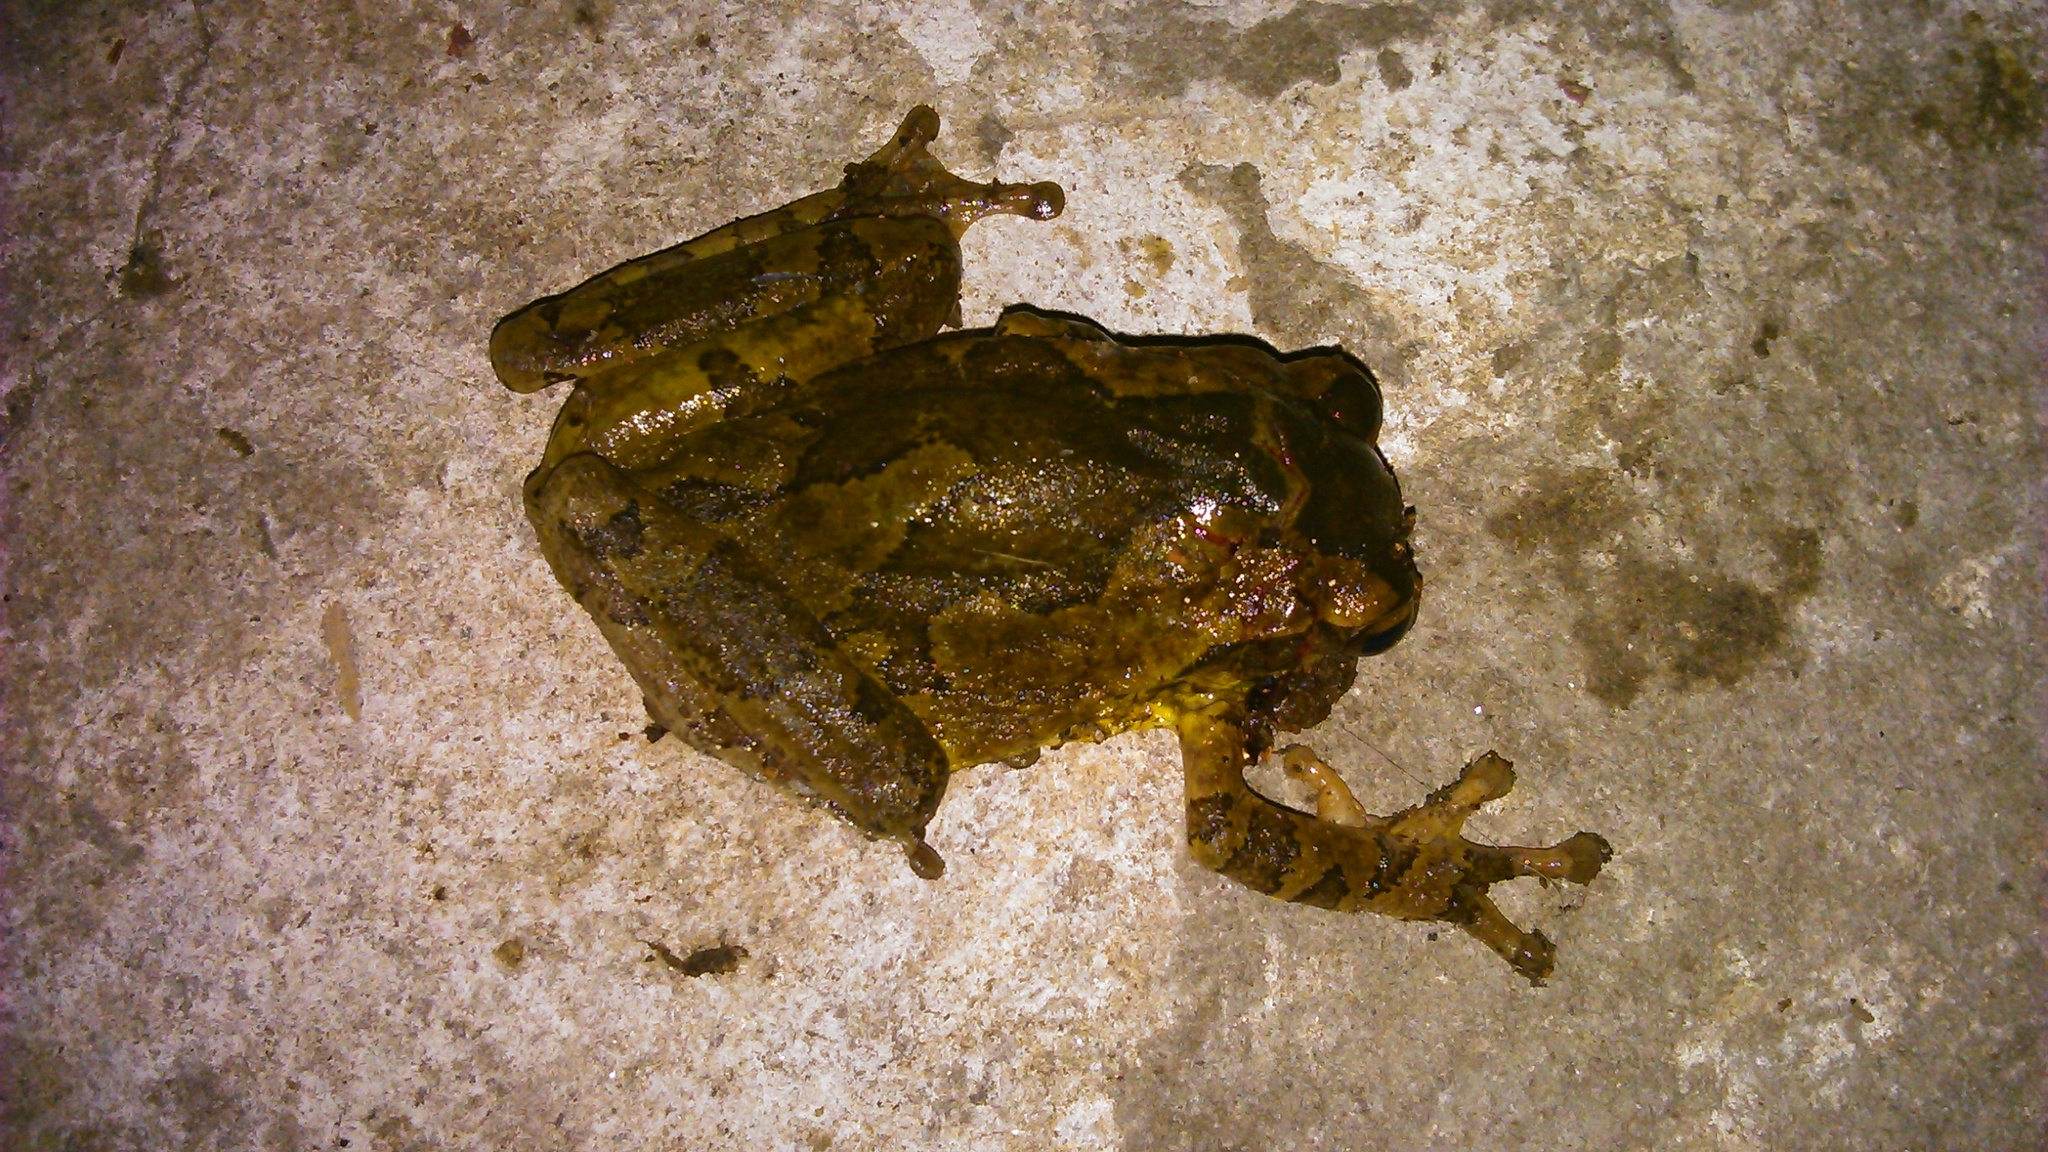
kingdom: Animalia
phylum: Chordata
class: Amphibia
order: Anura
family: Hylidae
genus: Smilisca
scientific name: Smilisca baudinii
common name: Mexican smilisca
